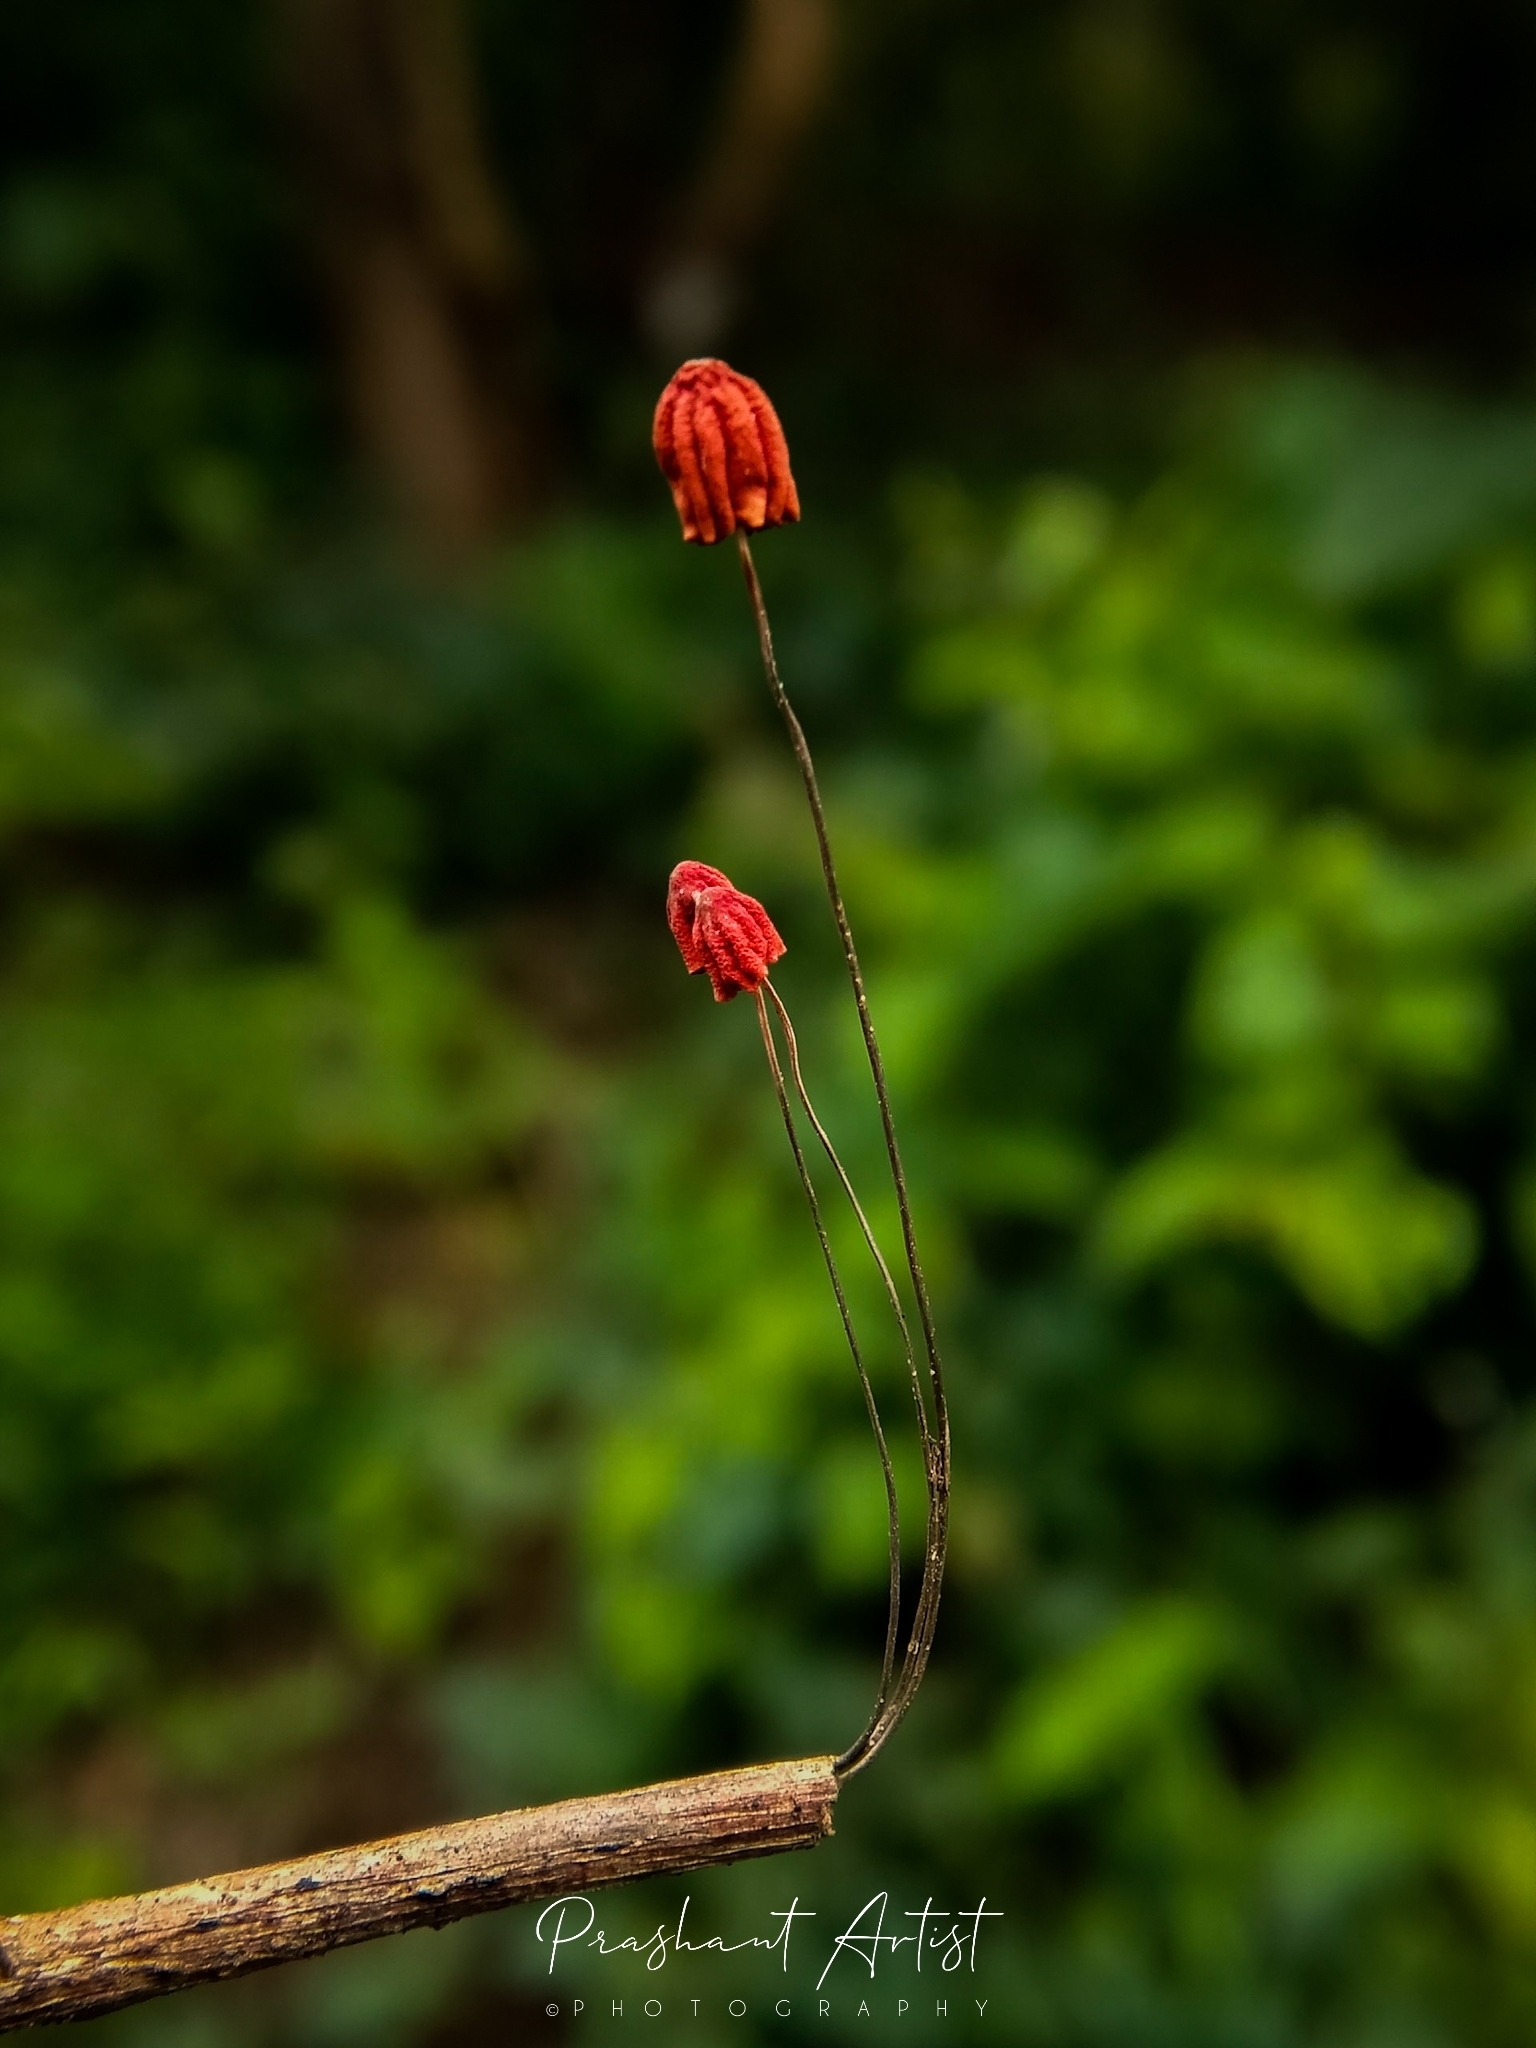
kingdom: Fungi
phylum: Basidiomycota
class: Agaricomycetes
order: Agaricales
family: Marasmiaceae
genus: Marasmius
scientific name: Marasmius haematocephalus
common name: Purple pinwheel
